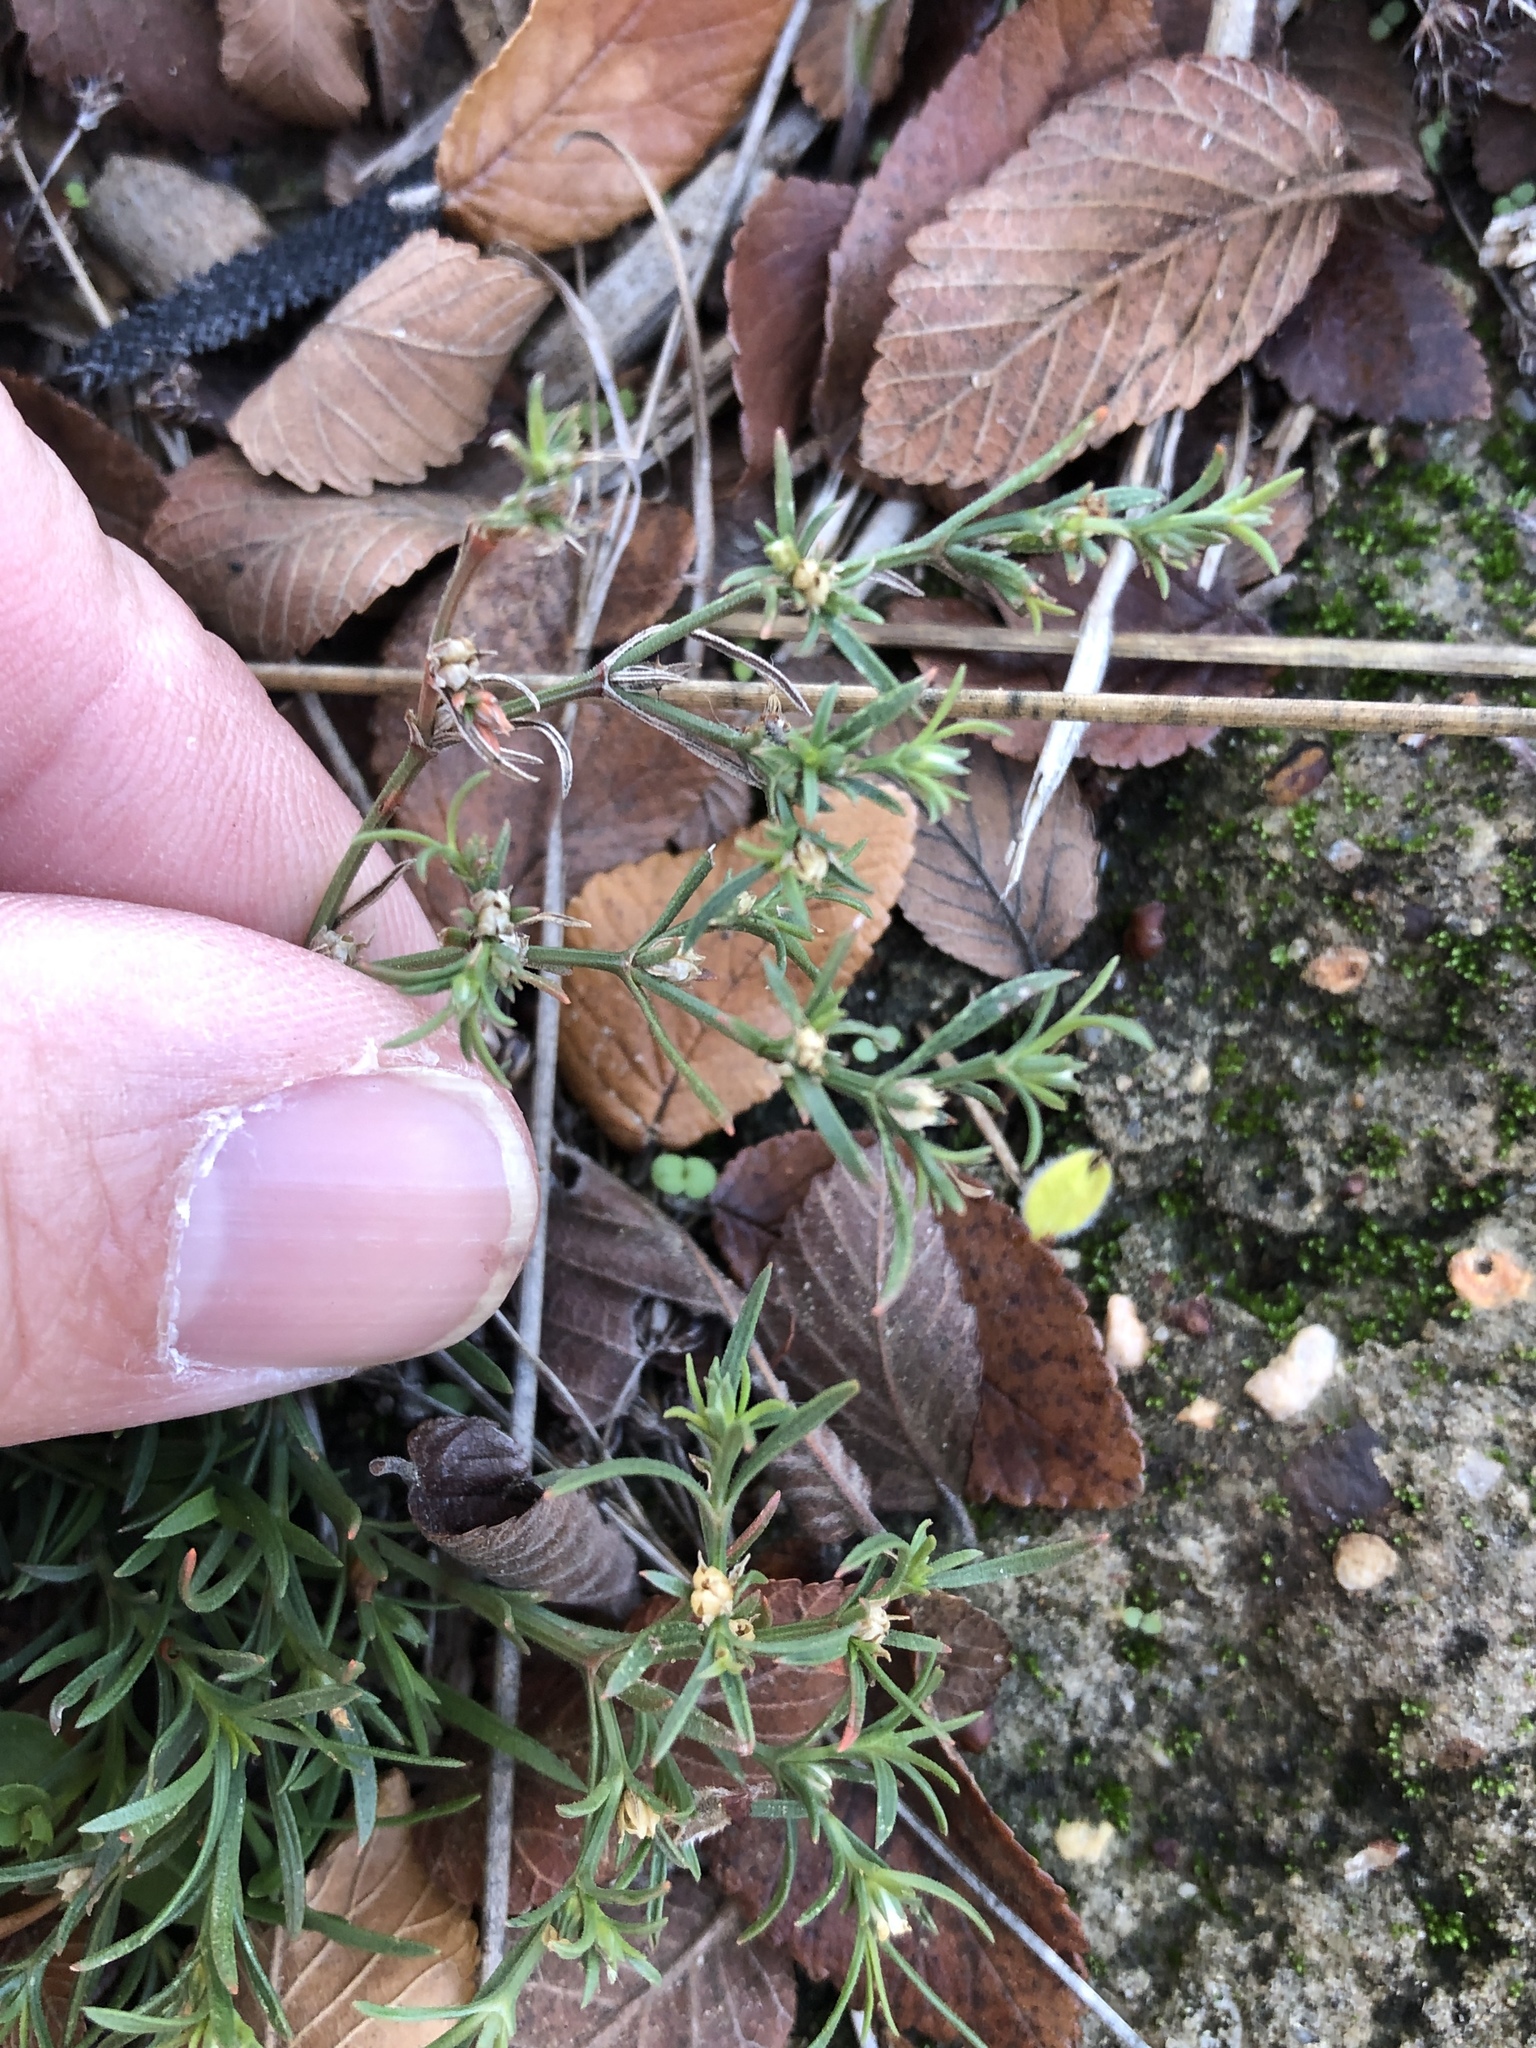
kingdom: Plantae
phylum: Tracheophyta
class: Magnoliopsida
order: Lamiales
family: Tetrachondraceae
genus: Polypremum
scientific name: Polypremum procumbens
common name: Juniper-leaf
